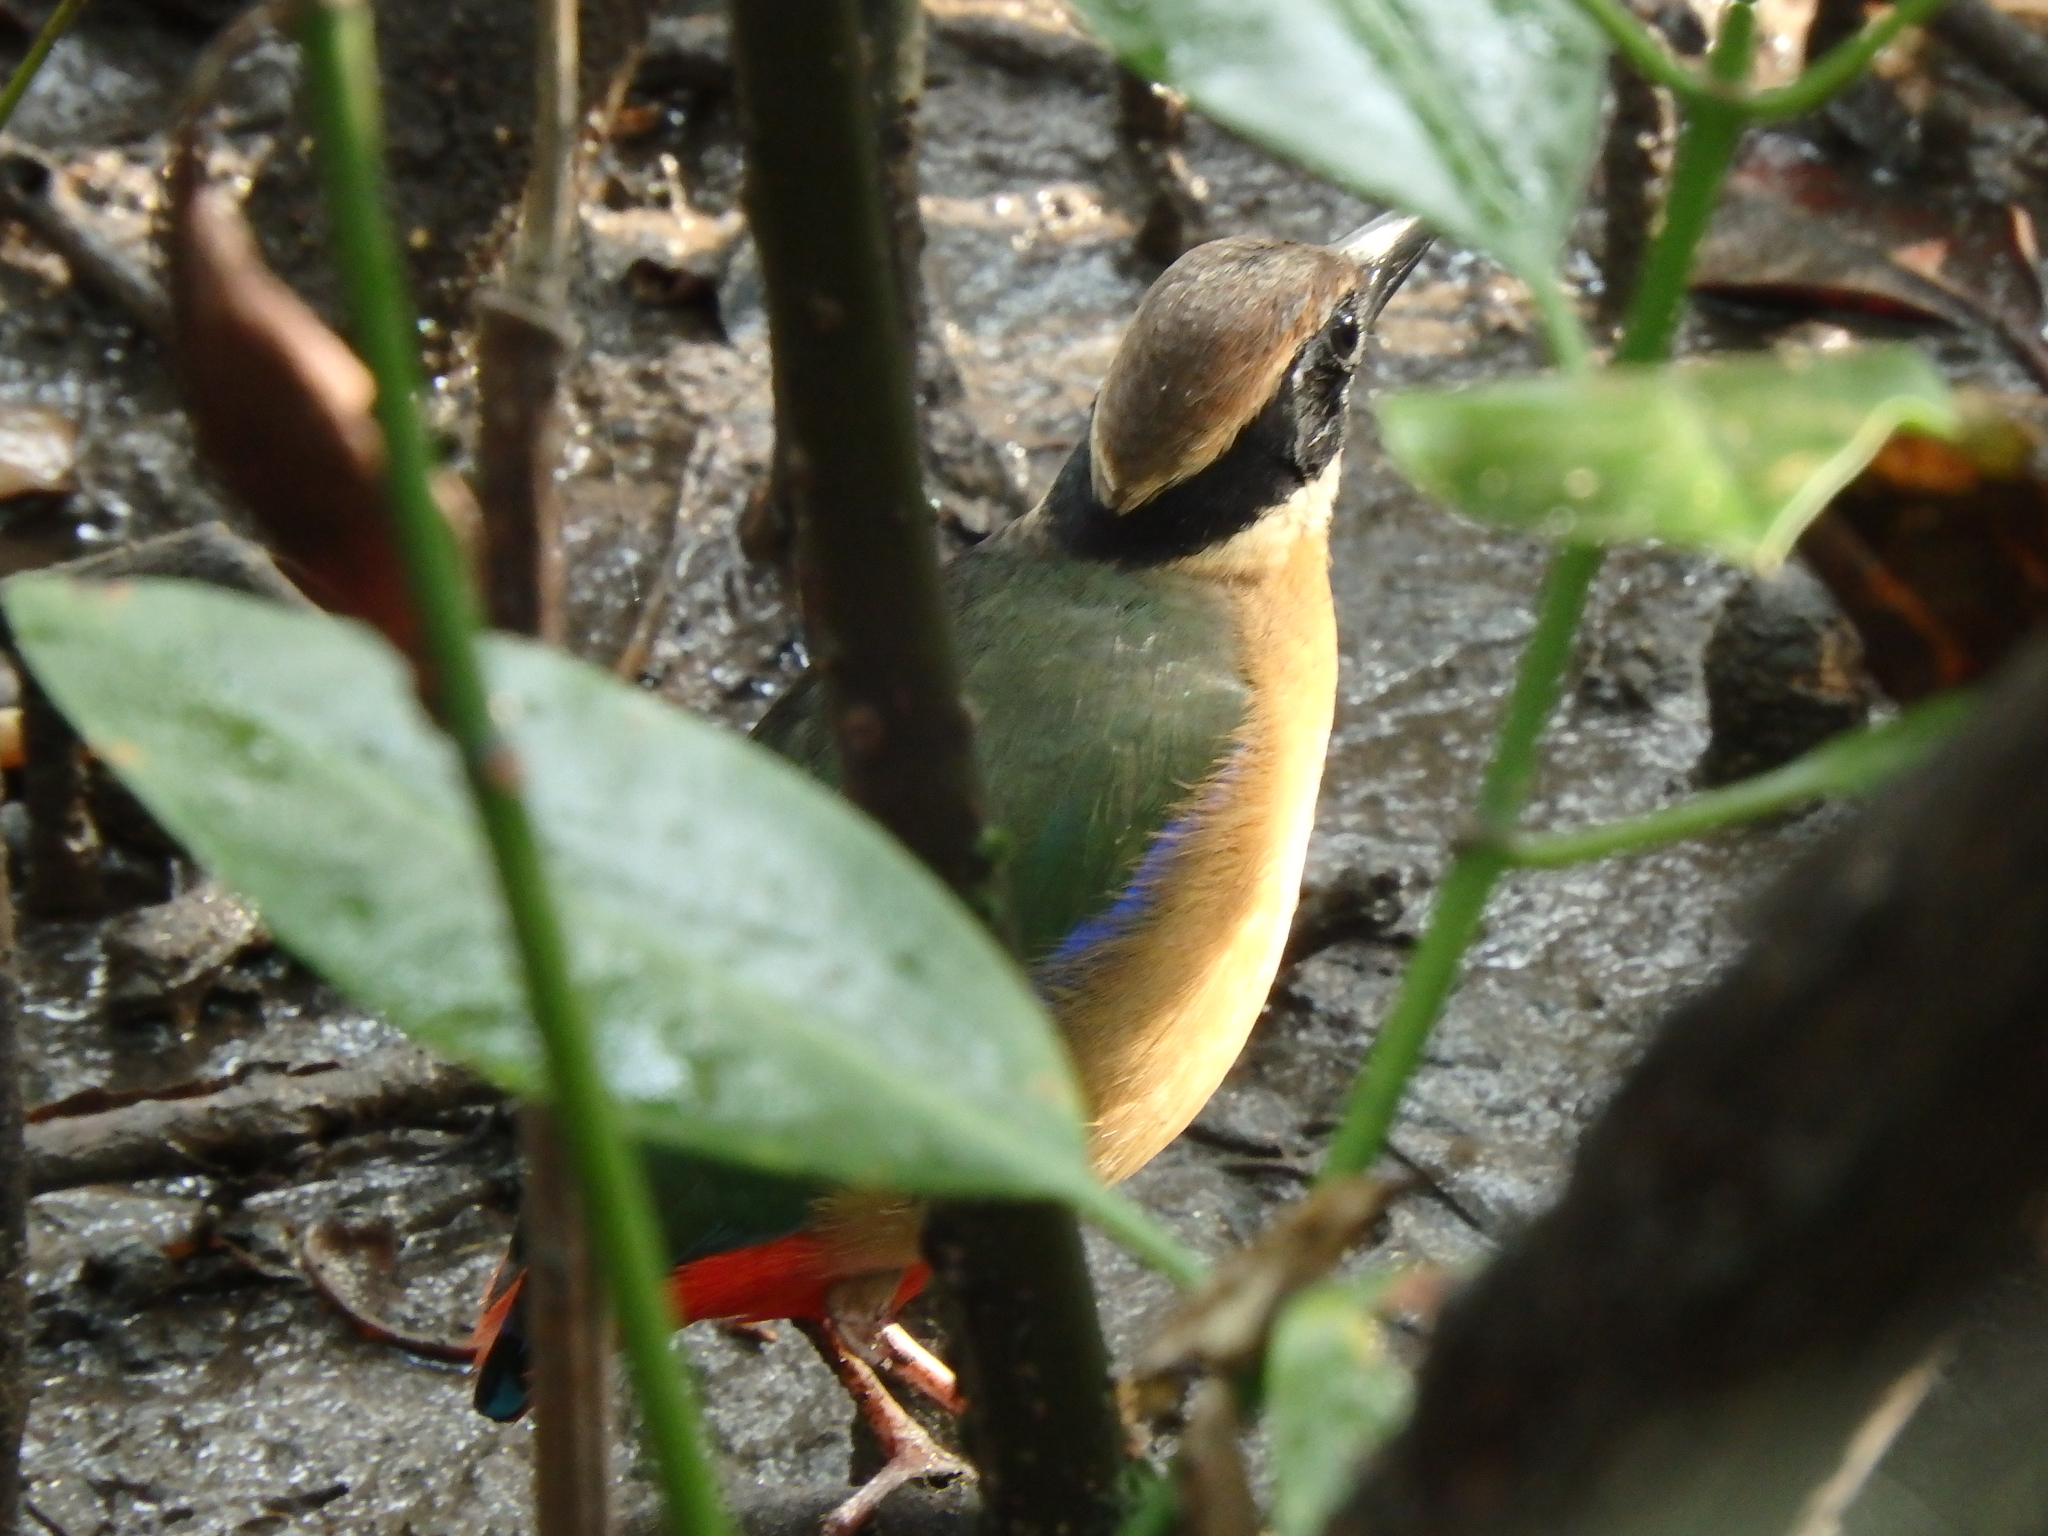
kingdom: Animalia
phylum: Chordata
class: Aves
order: Passeriformes
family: Pittidae
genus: Pitta
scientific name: Pitta megarhyncha
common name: Mangrove pitta
